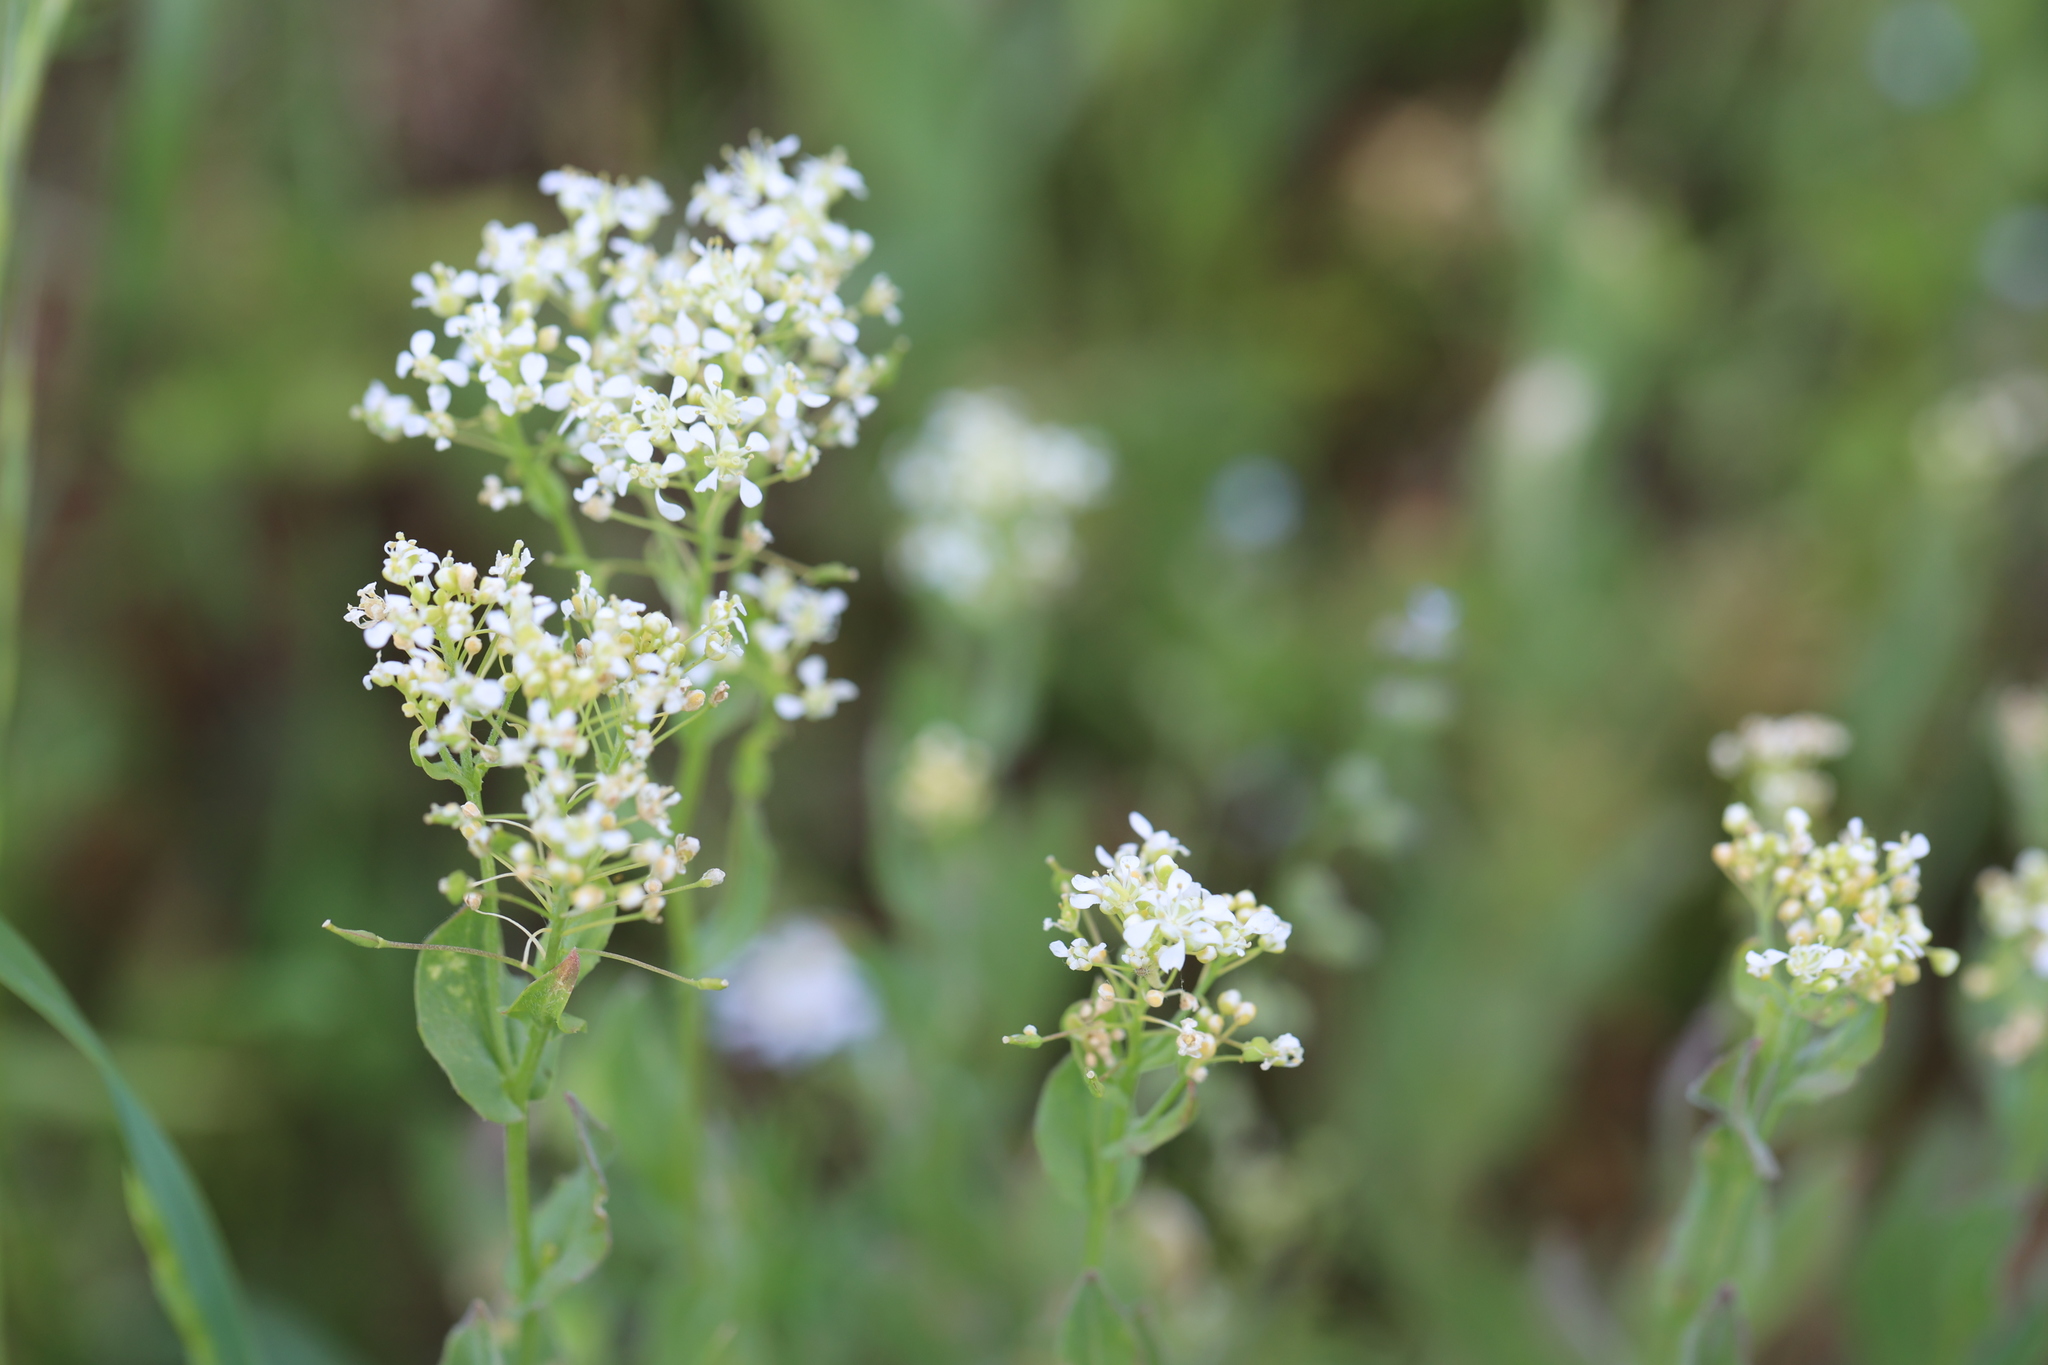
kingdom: Plantae
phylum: Tracheophyta
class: Magnoliopsida
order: Brassicales
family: Brassicaceae
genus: Lepidium
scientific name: Lepidium draba
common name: Hoary cress
